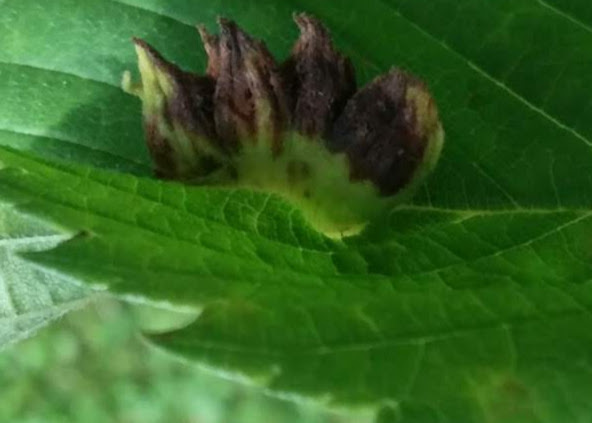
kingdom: Animalia
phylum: Arthropoda
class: Insecta
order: Hemiptera
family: Aphididae
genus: Colopha
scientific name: Colopha ulmicola
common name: Elm cockscombgall aphid
